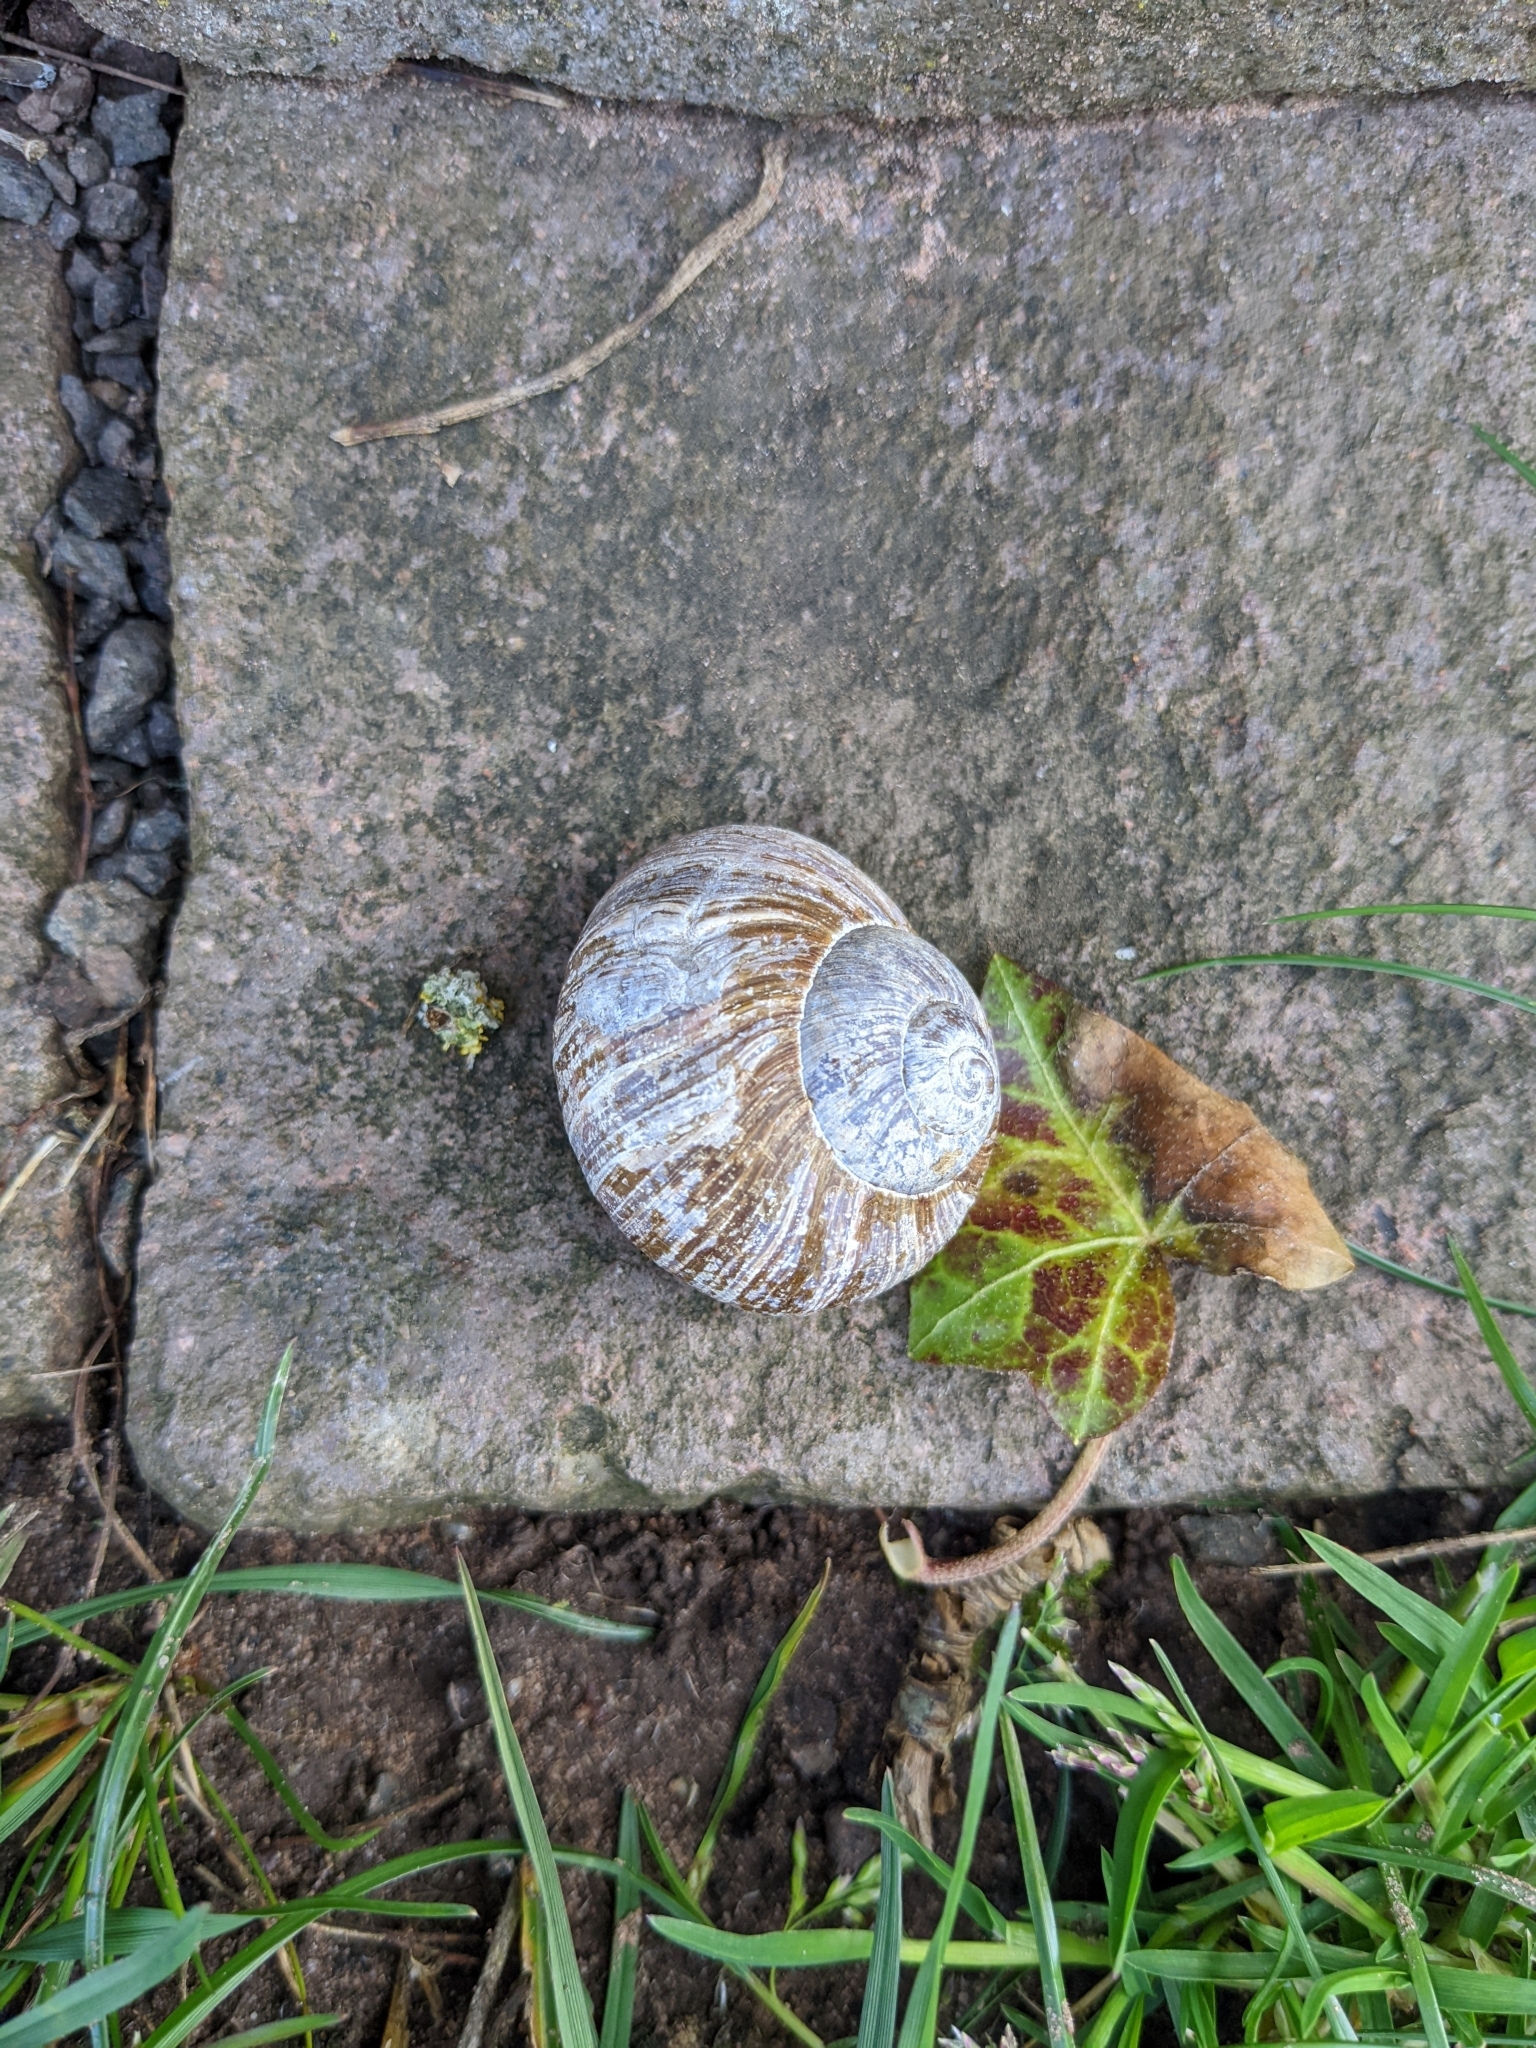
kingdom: Animalia
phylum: Mollusca
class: Gastropoda
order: Stylommatophora
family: Helicidae
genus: Helix
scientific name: Helix pomatia
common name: Roman snail
